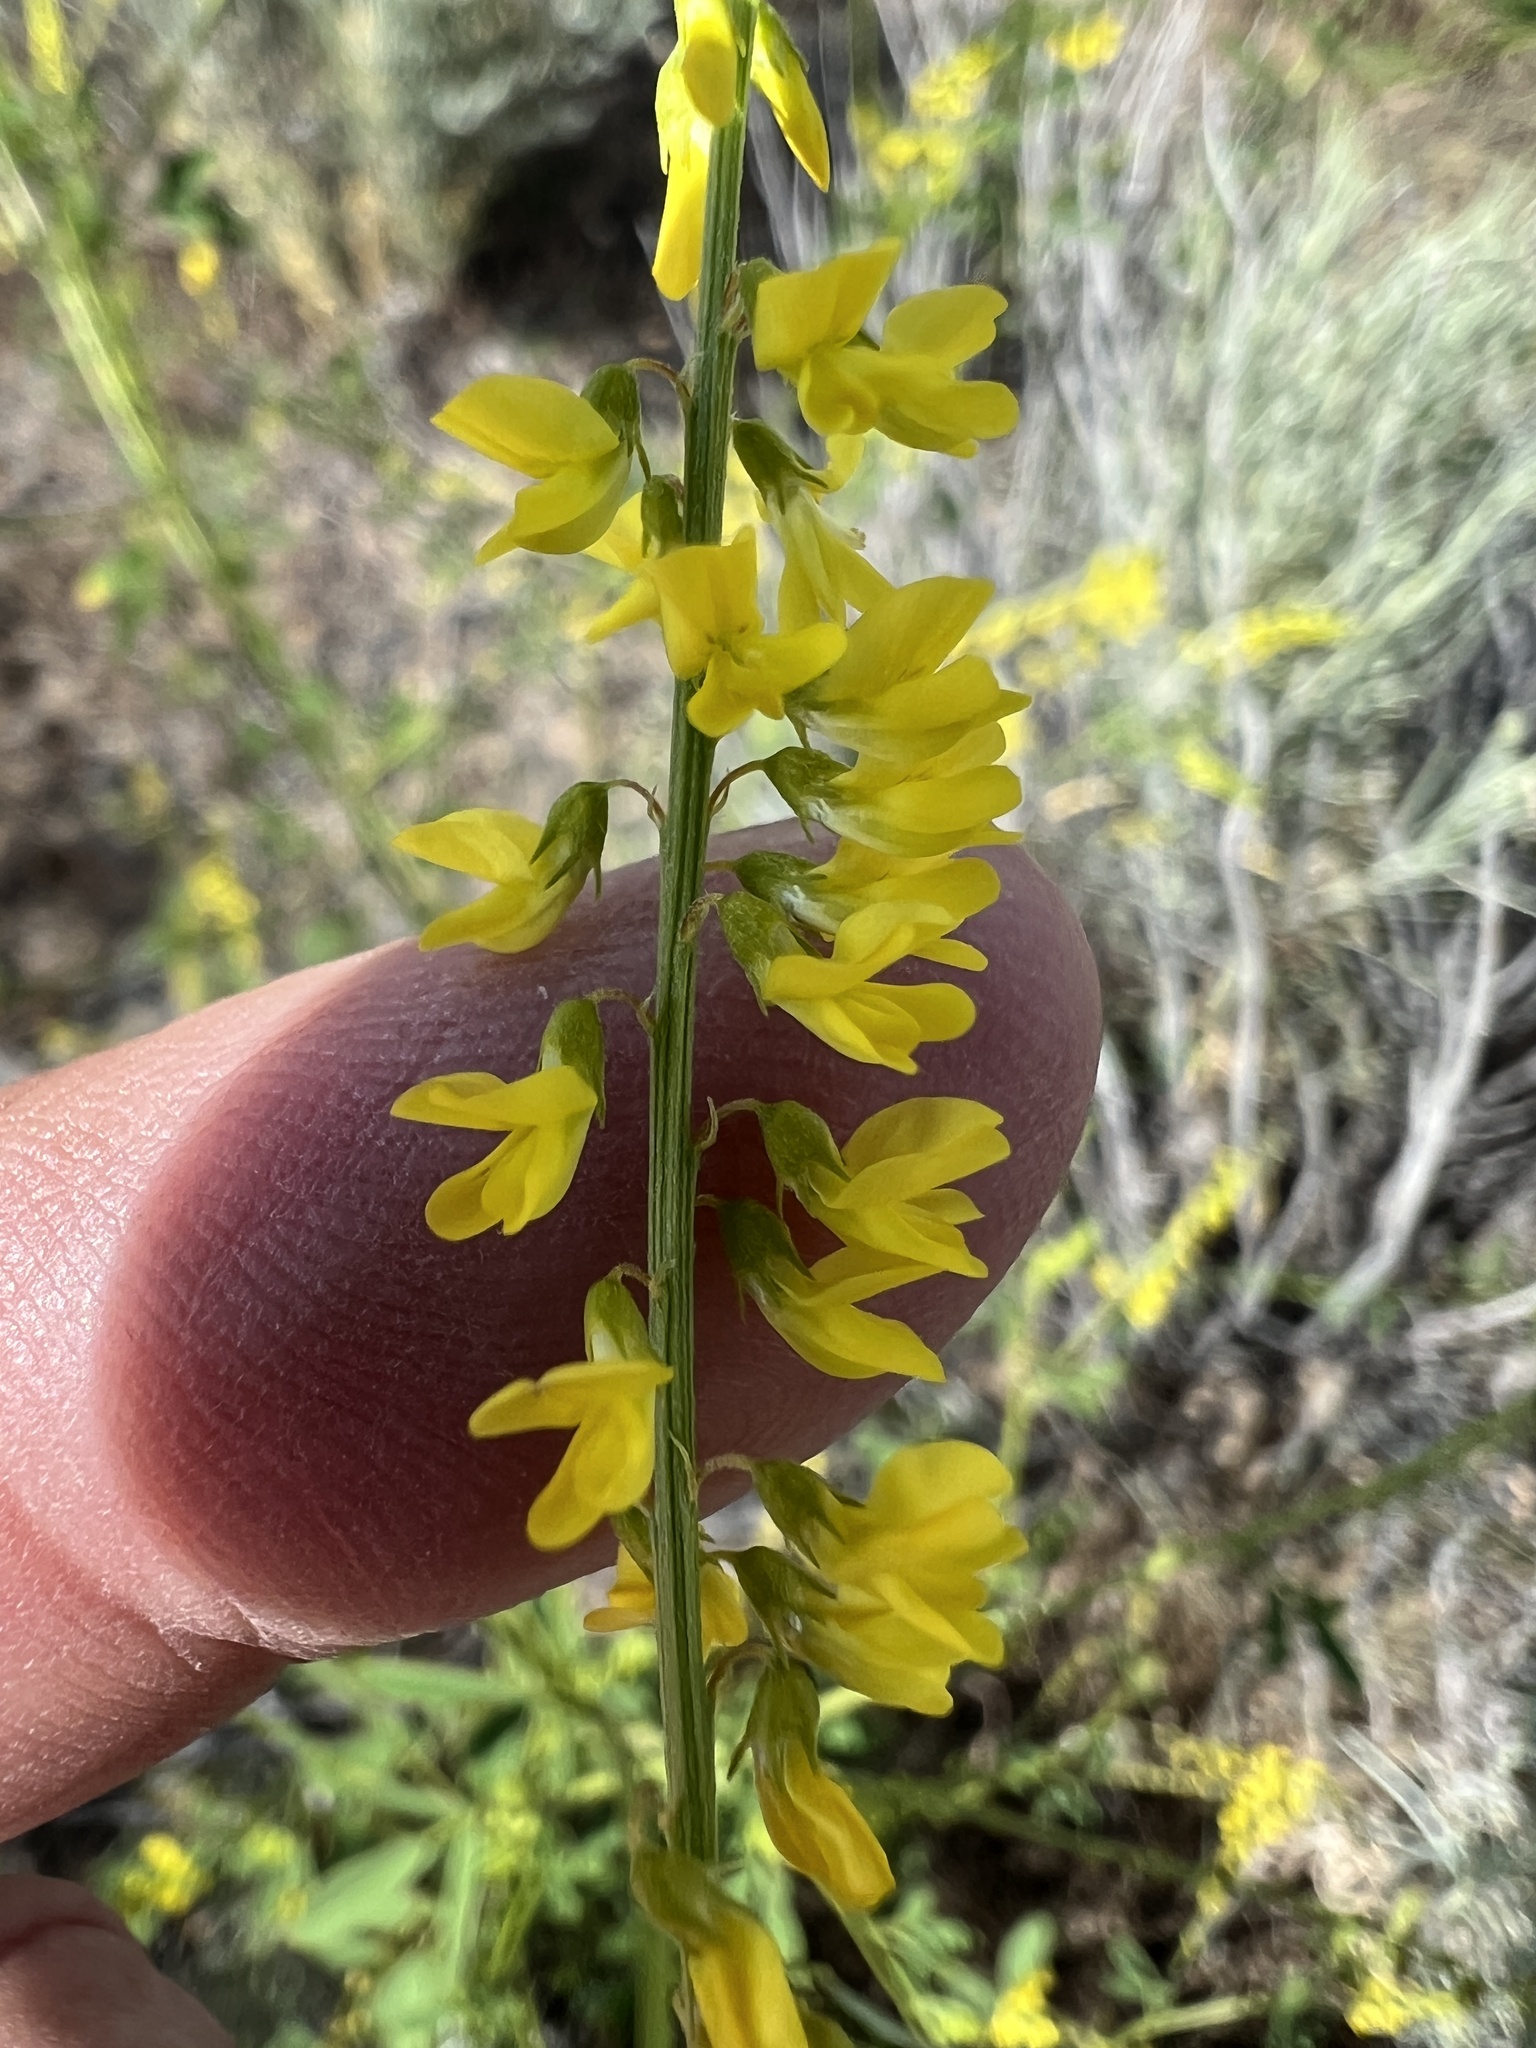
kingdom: Plantae
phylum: Tracheophyta
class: Magnoliopsida
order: Fabales
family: Fabaceae
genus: Melilotus
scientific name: Melilotus officinalis
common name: Sweetclover
